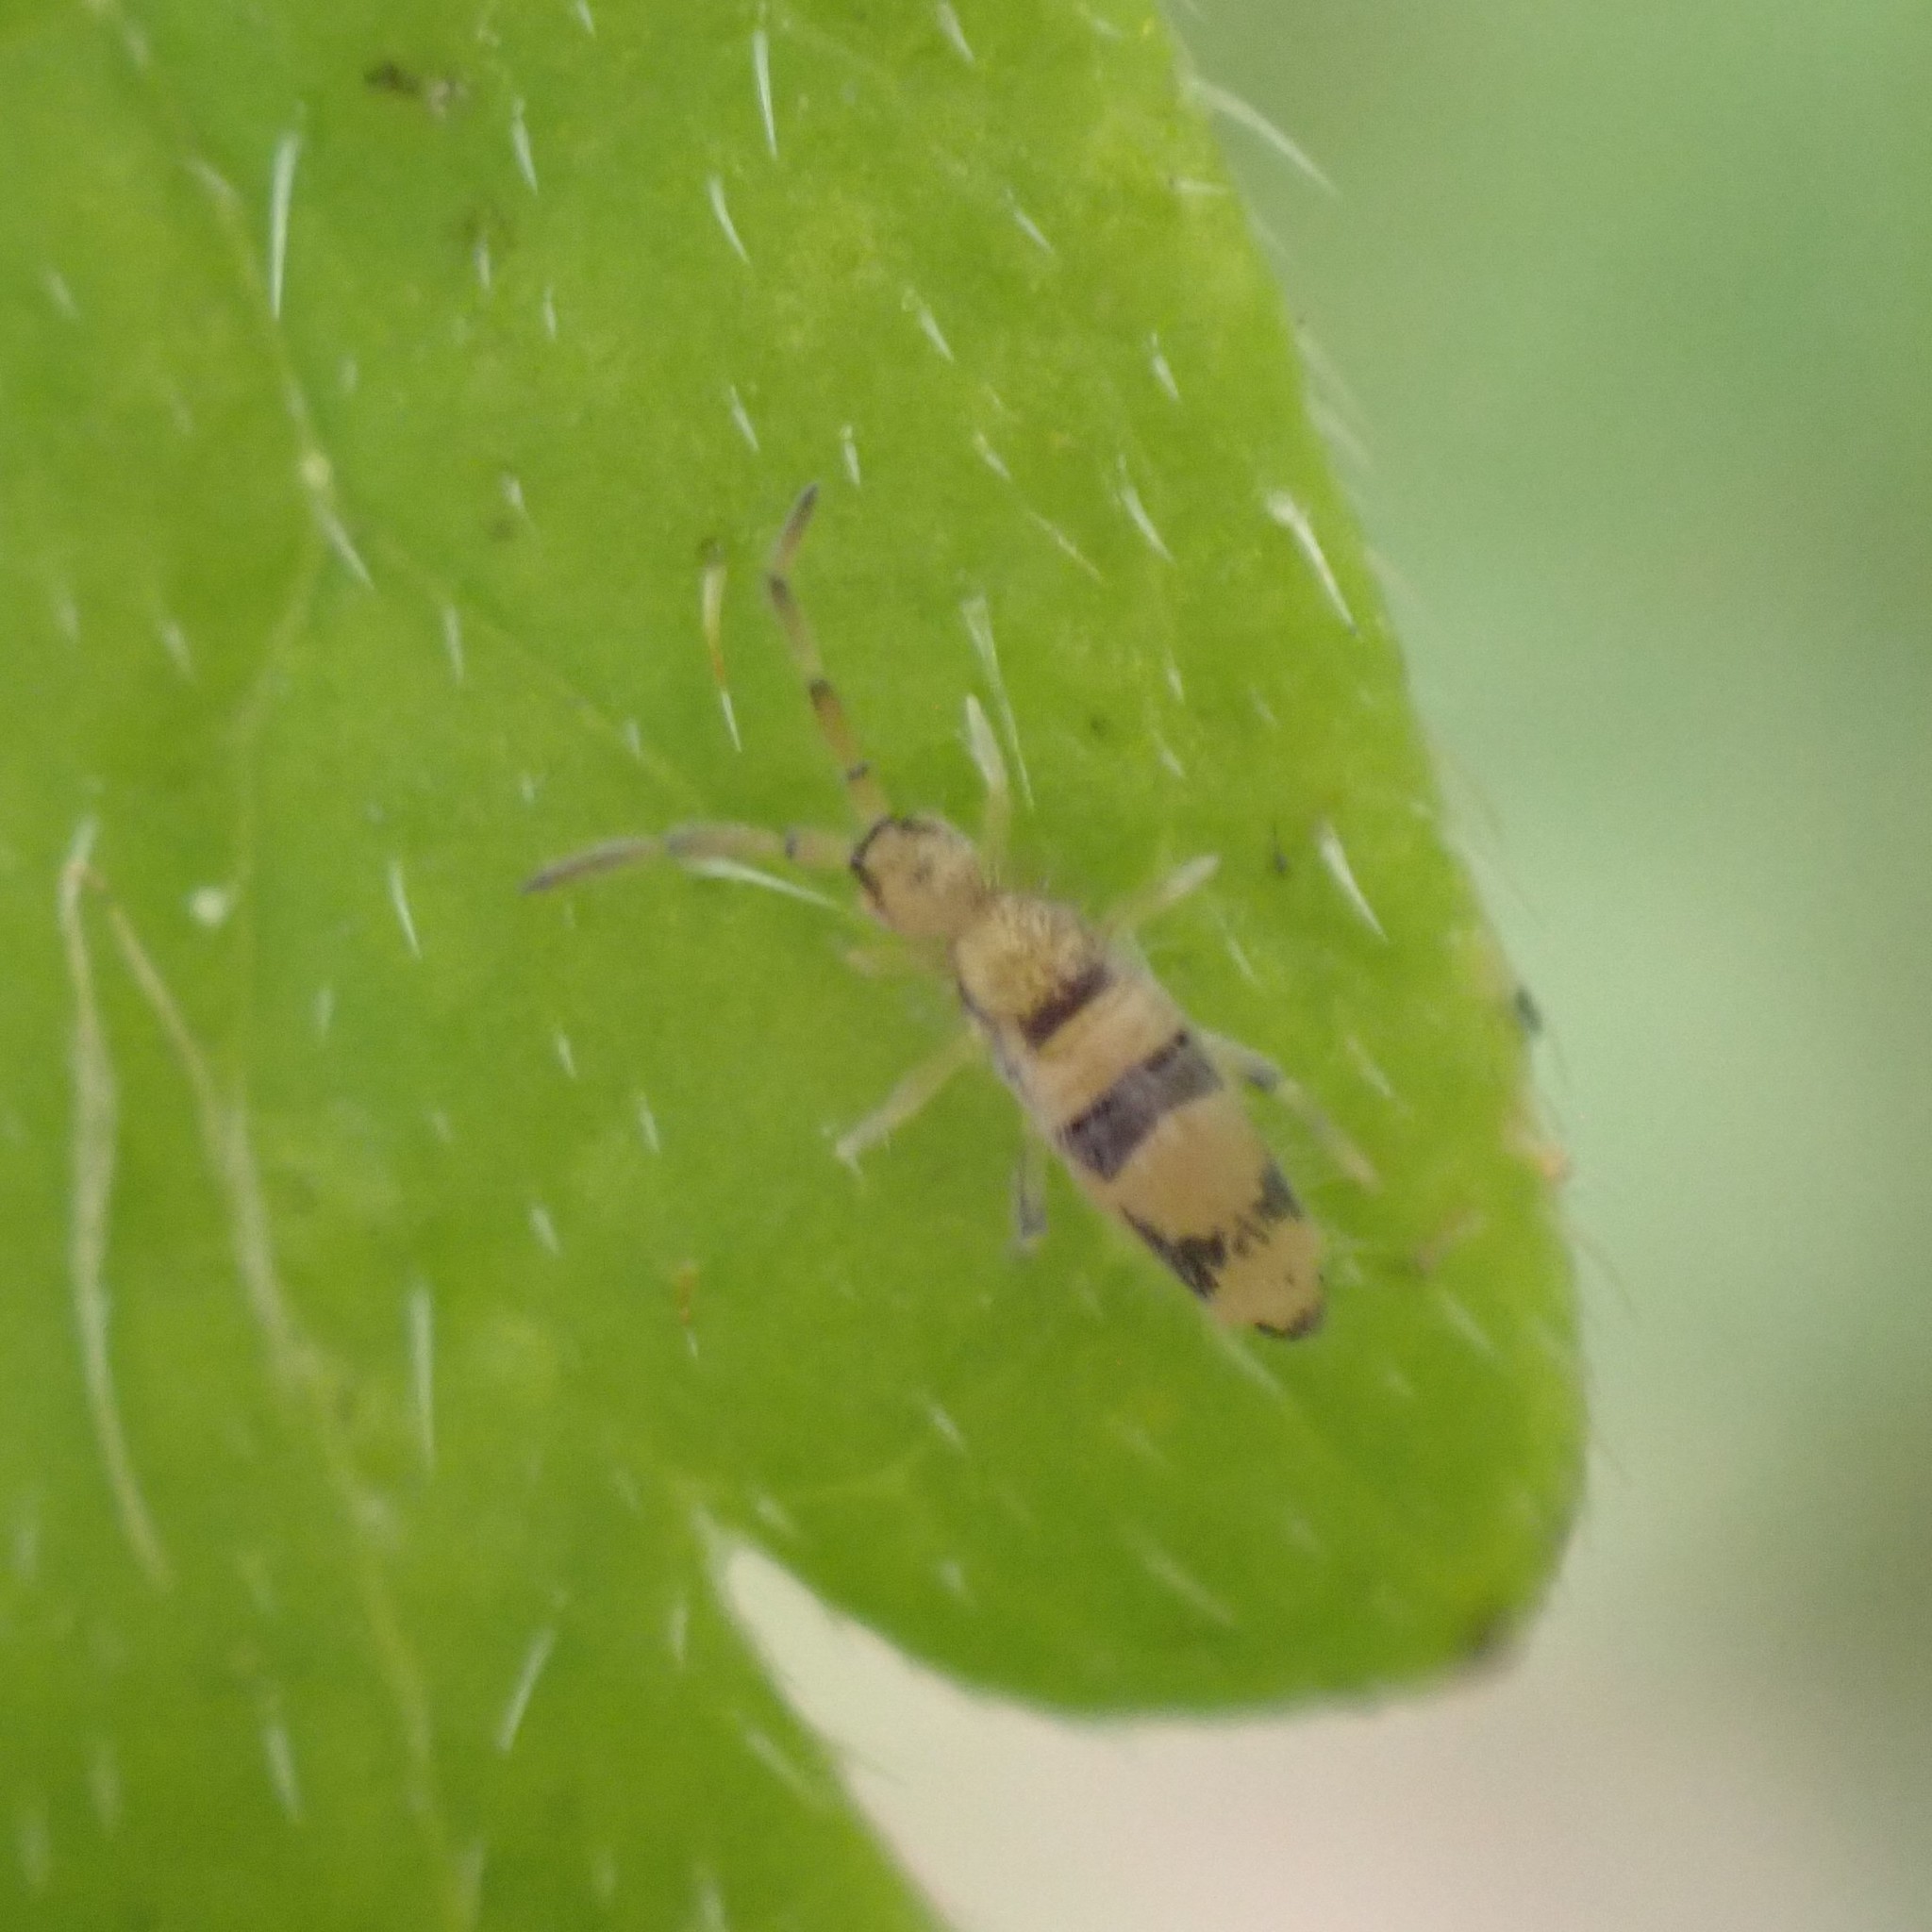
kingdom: Animalia
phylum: Arthropoda
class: Collembola
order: Entomobryomorpha
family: Entomobryidae
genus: Entomobrya
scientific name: Entomobrya triangularis
